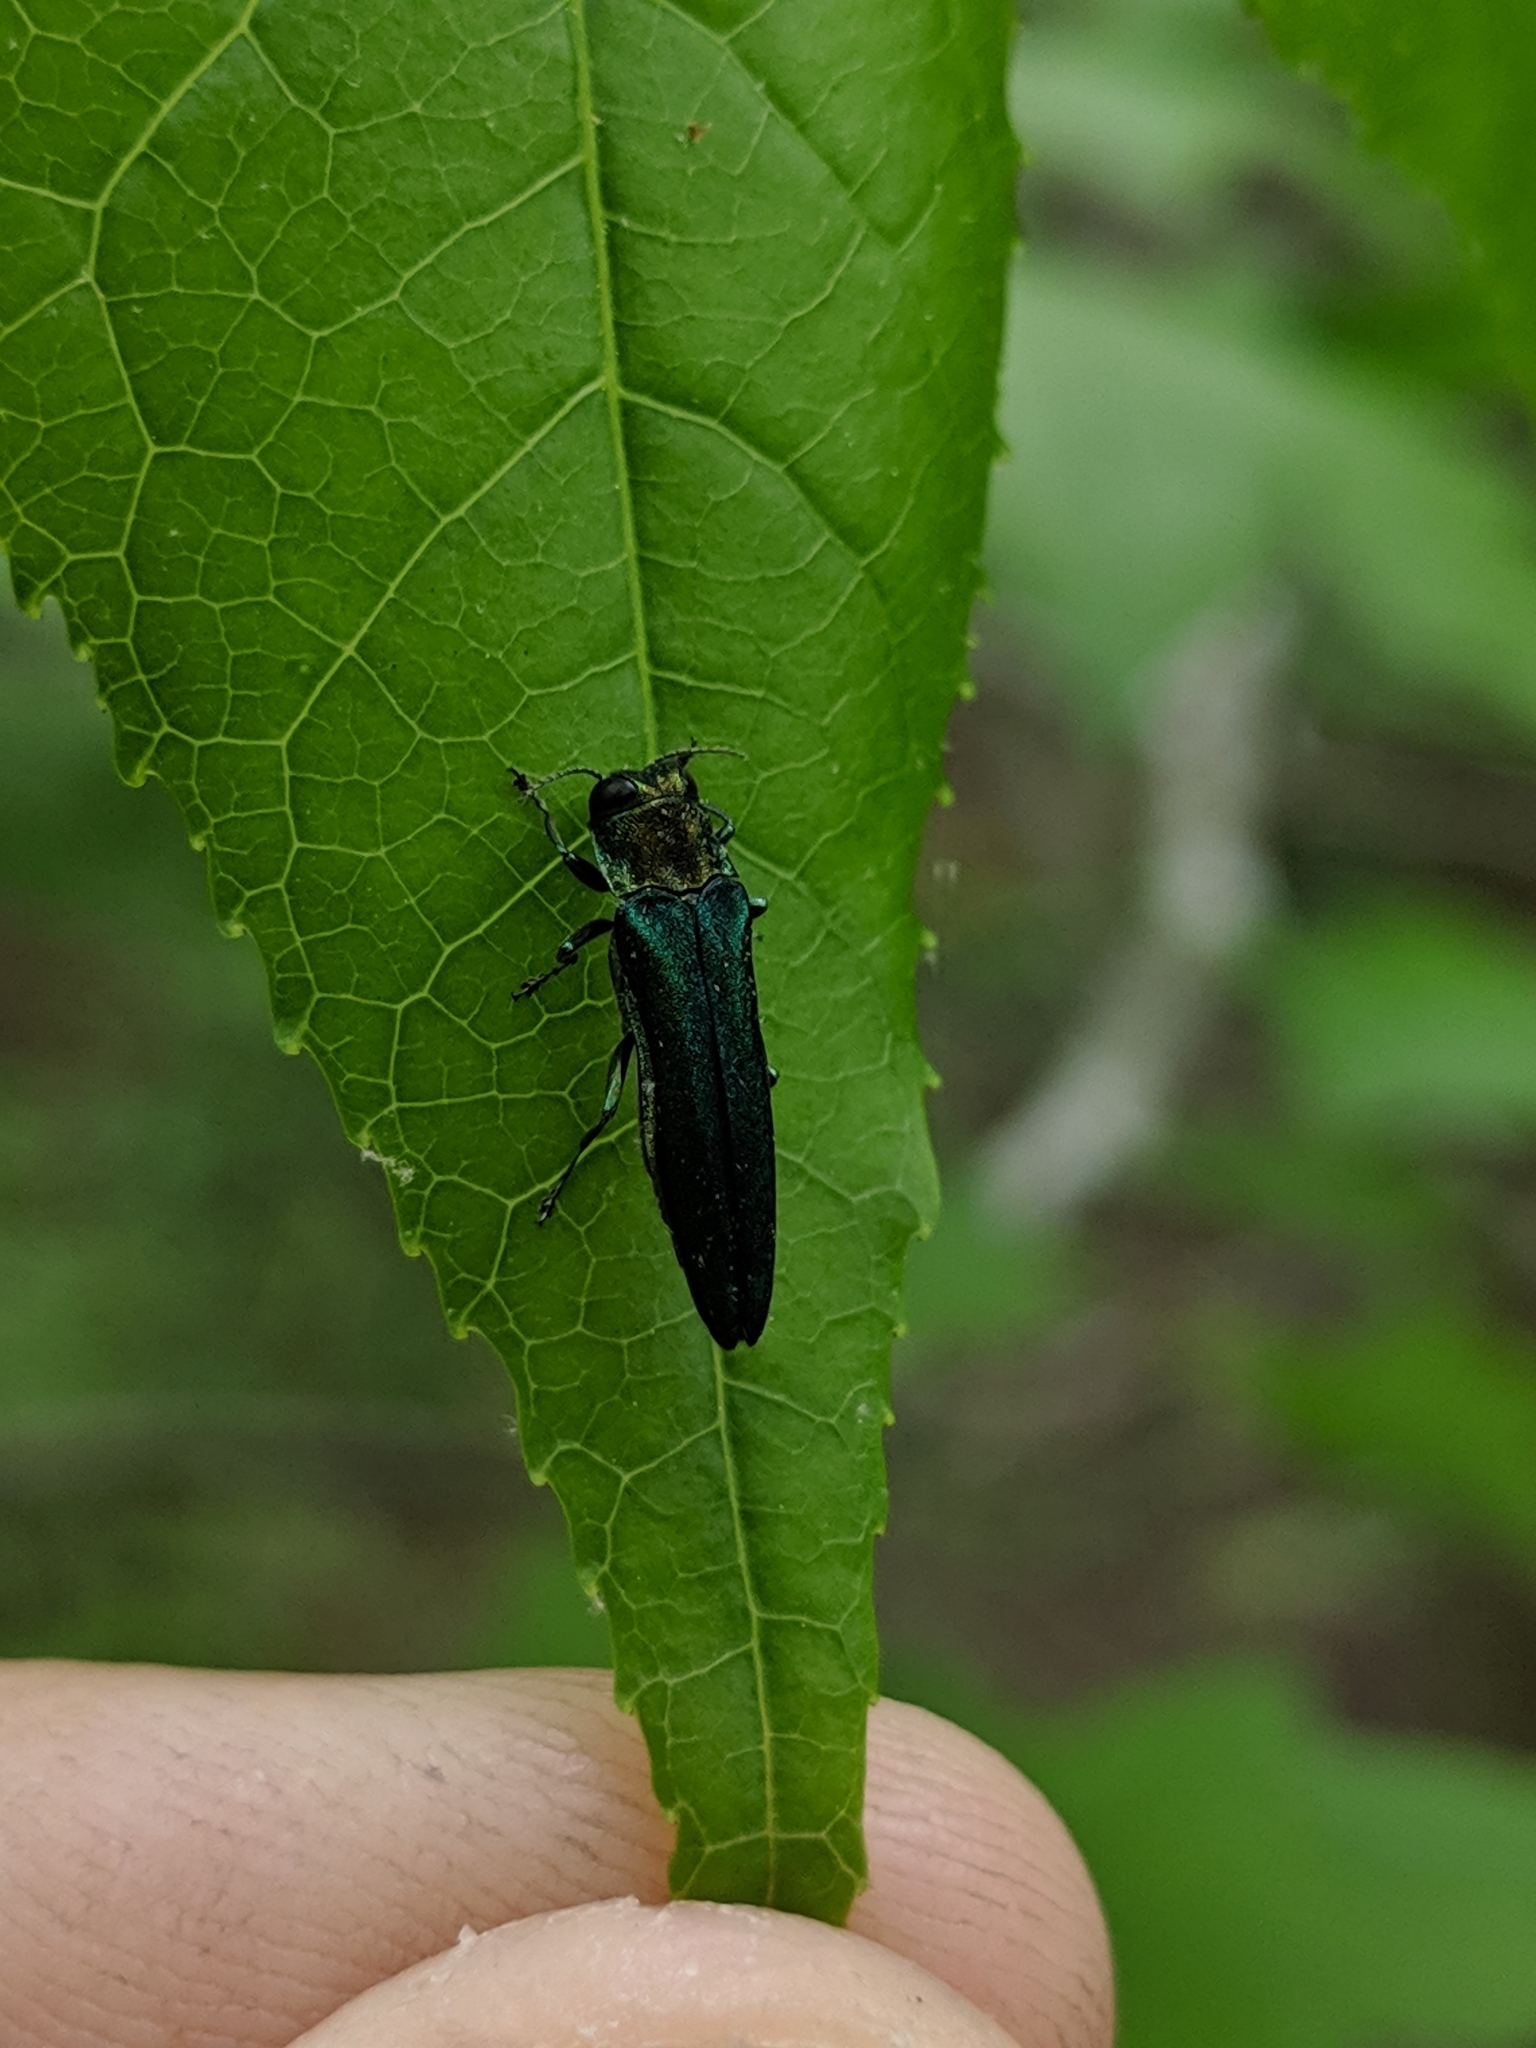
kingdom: Animalia
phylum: Arthropoda
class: Insecta
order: Coleoptera
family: Buprestidae
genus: Agrilus
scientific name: Agrilus planipennis
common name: Emerald ash borer
